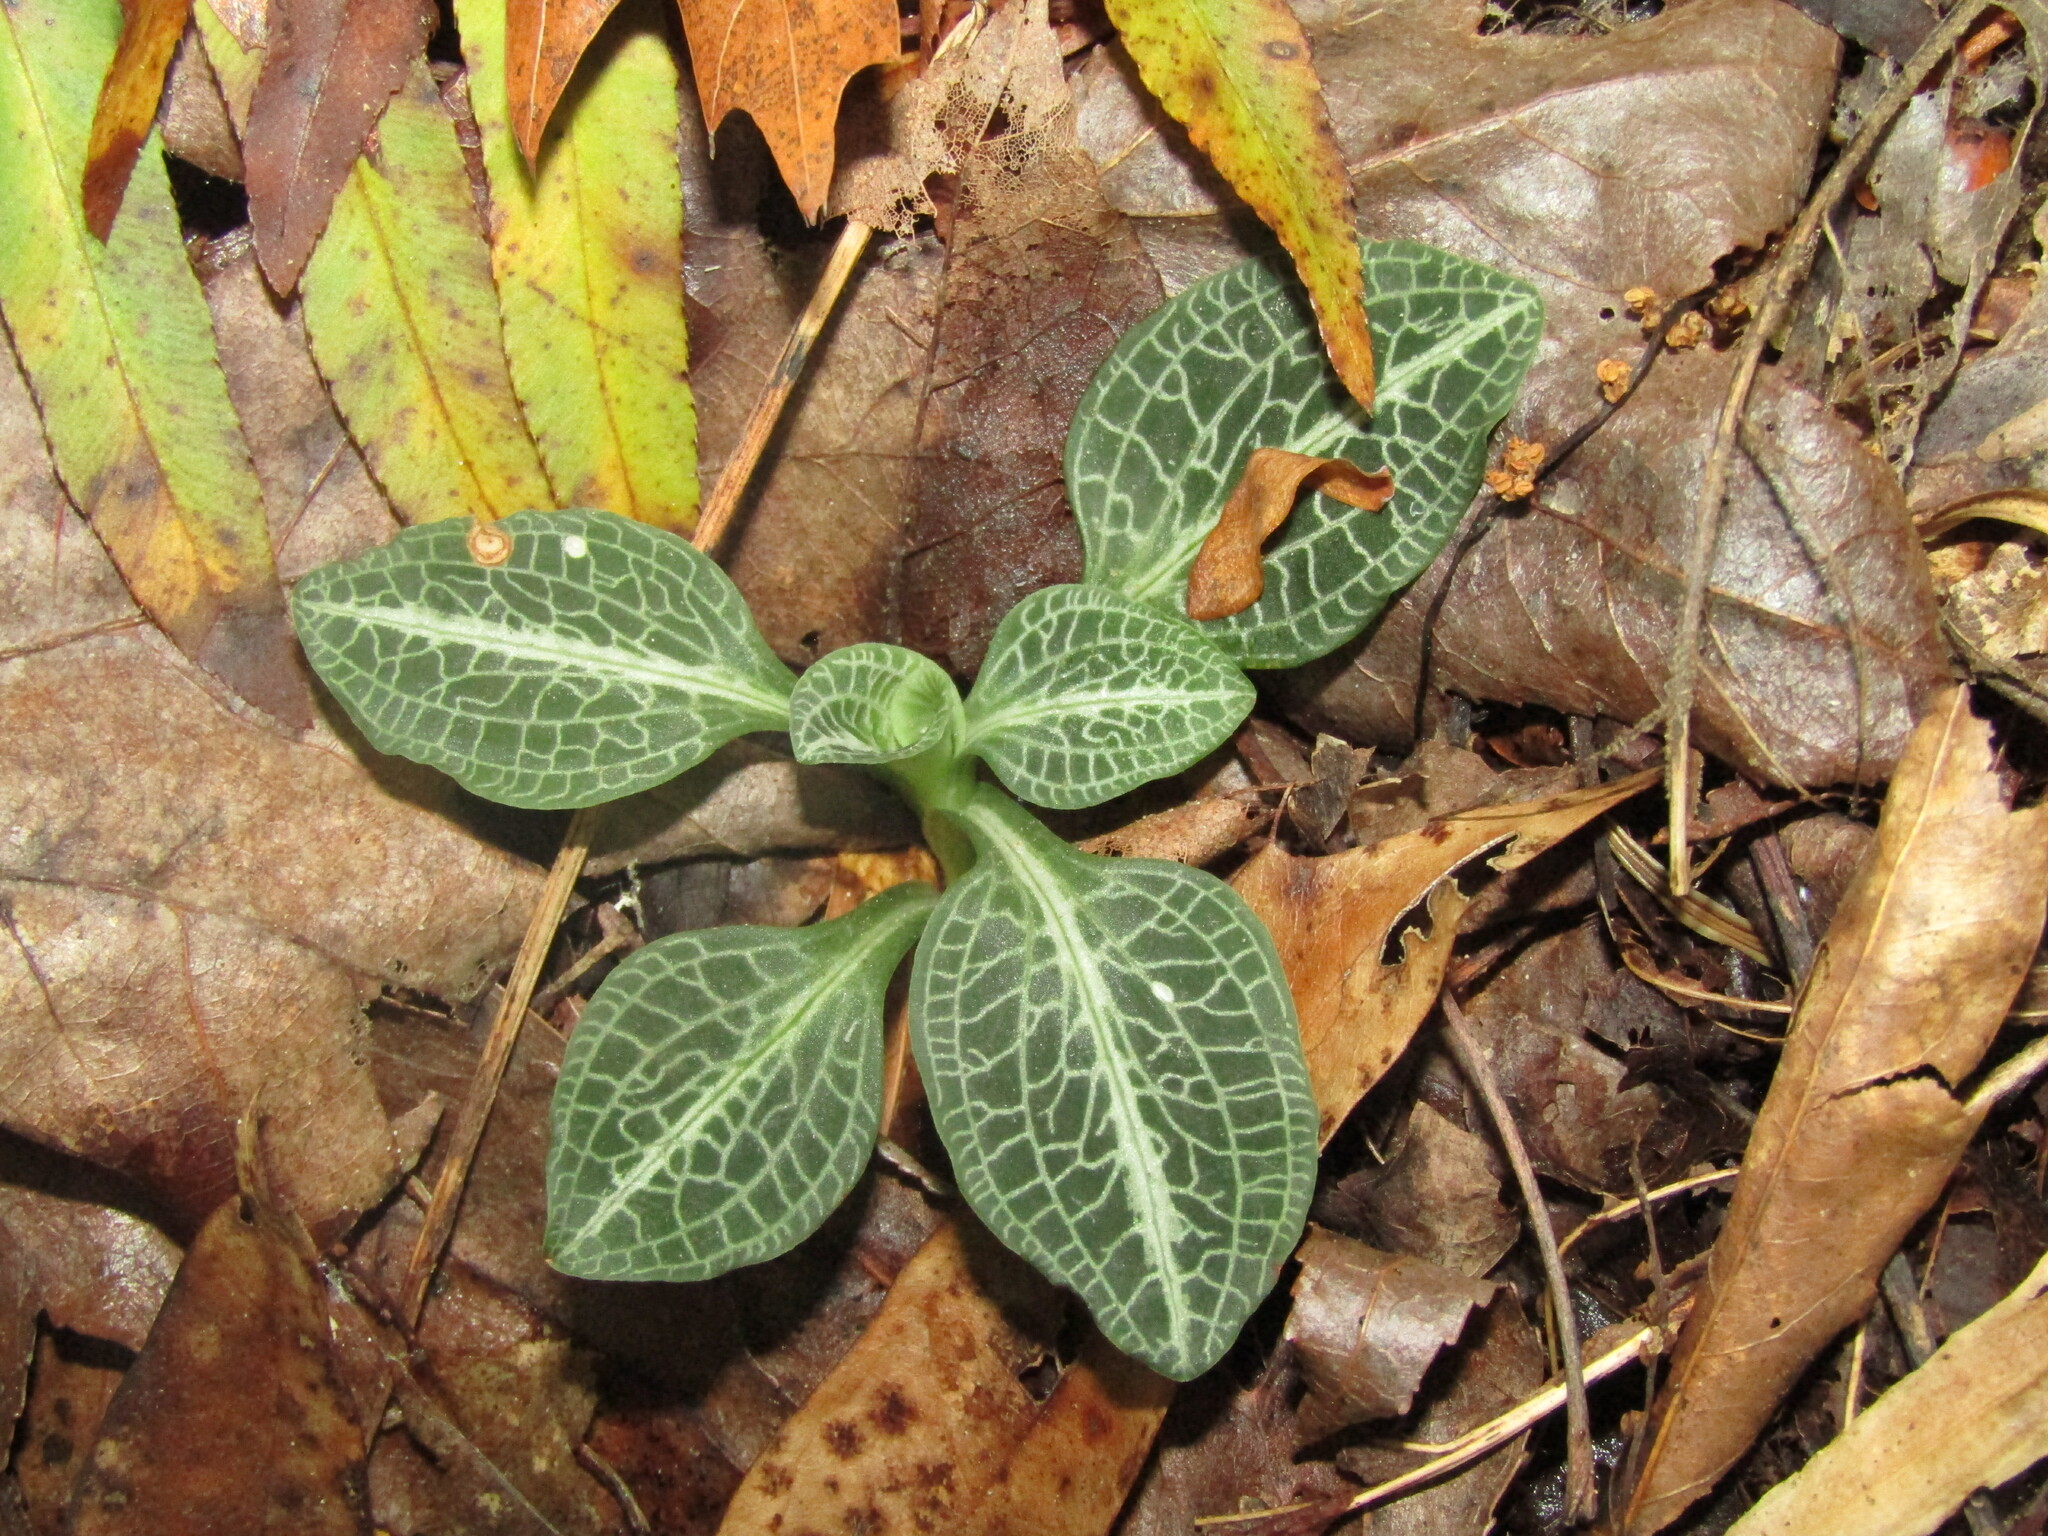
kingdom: Plantae
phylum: Tracheophyta
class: Liliopsida
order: Asparagales
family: Orchidaceae
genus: Goodyera
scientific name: Goodyera pubescens
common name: Downy rattlesnake-plantain
